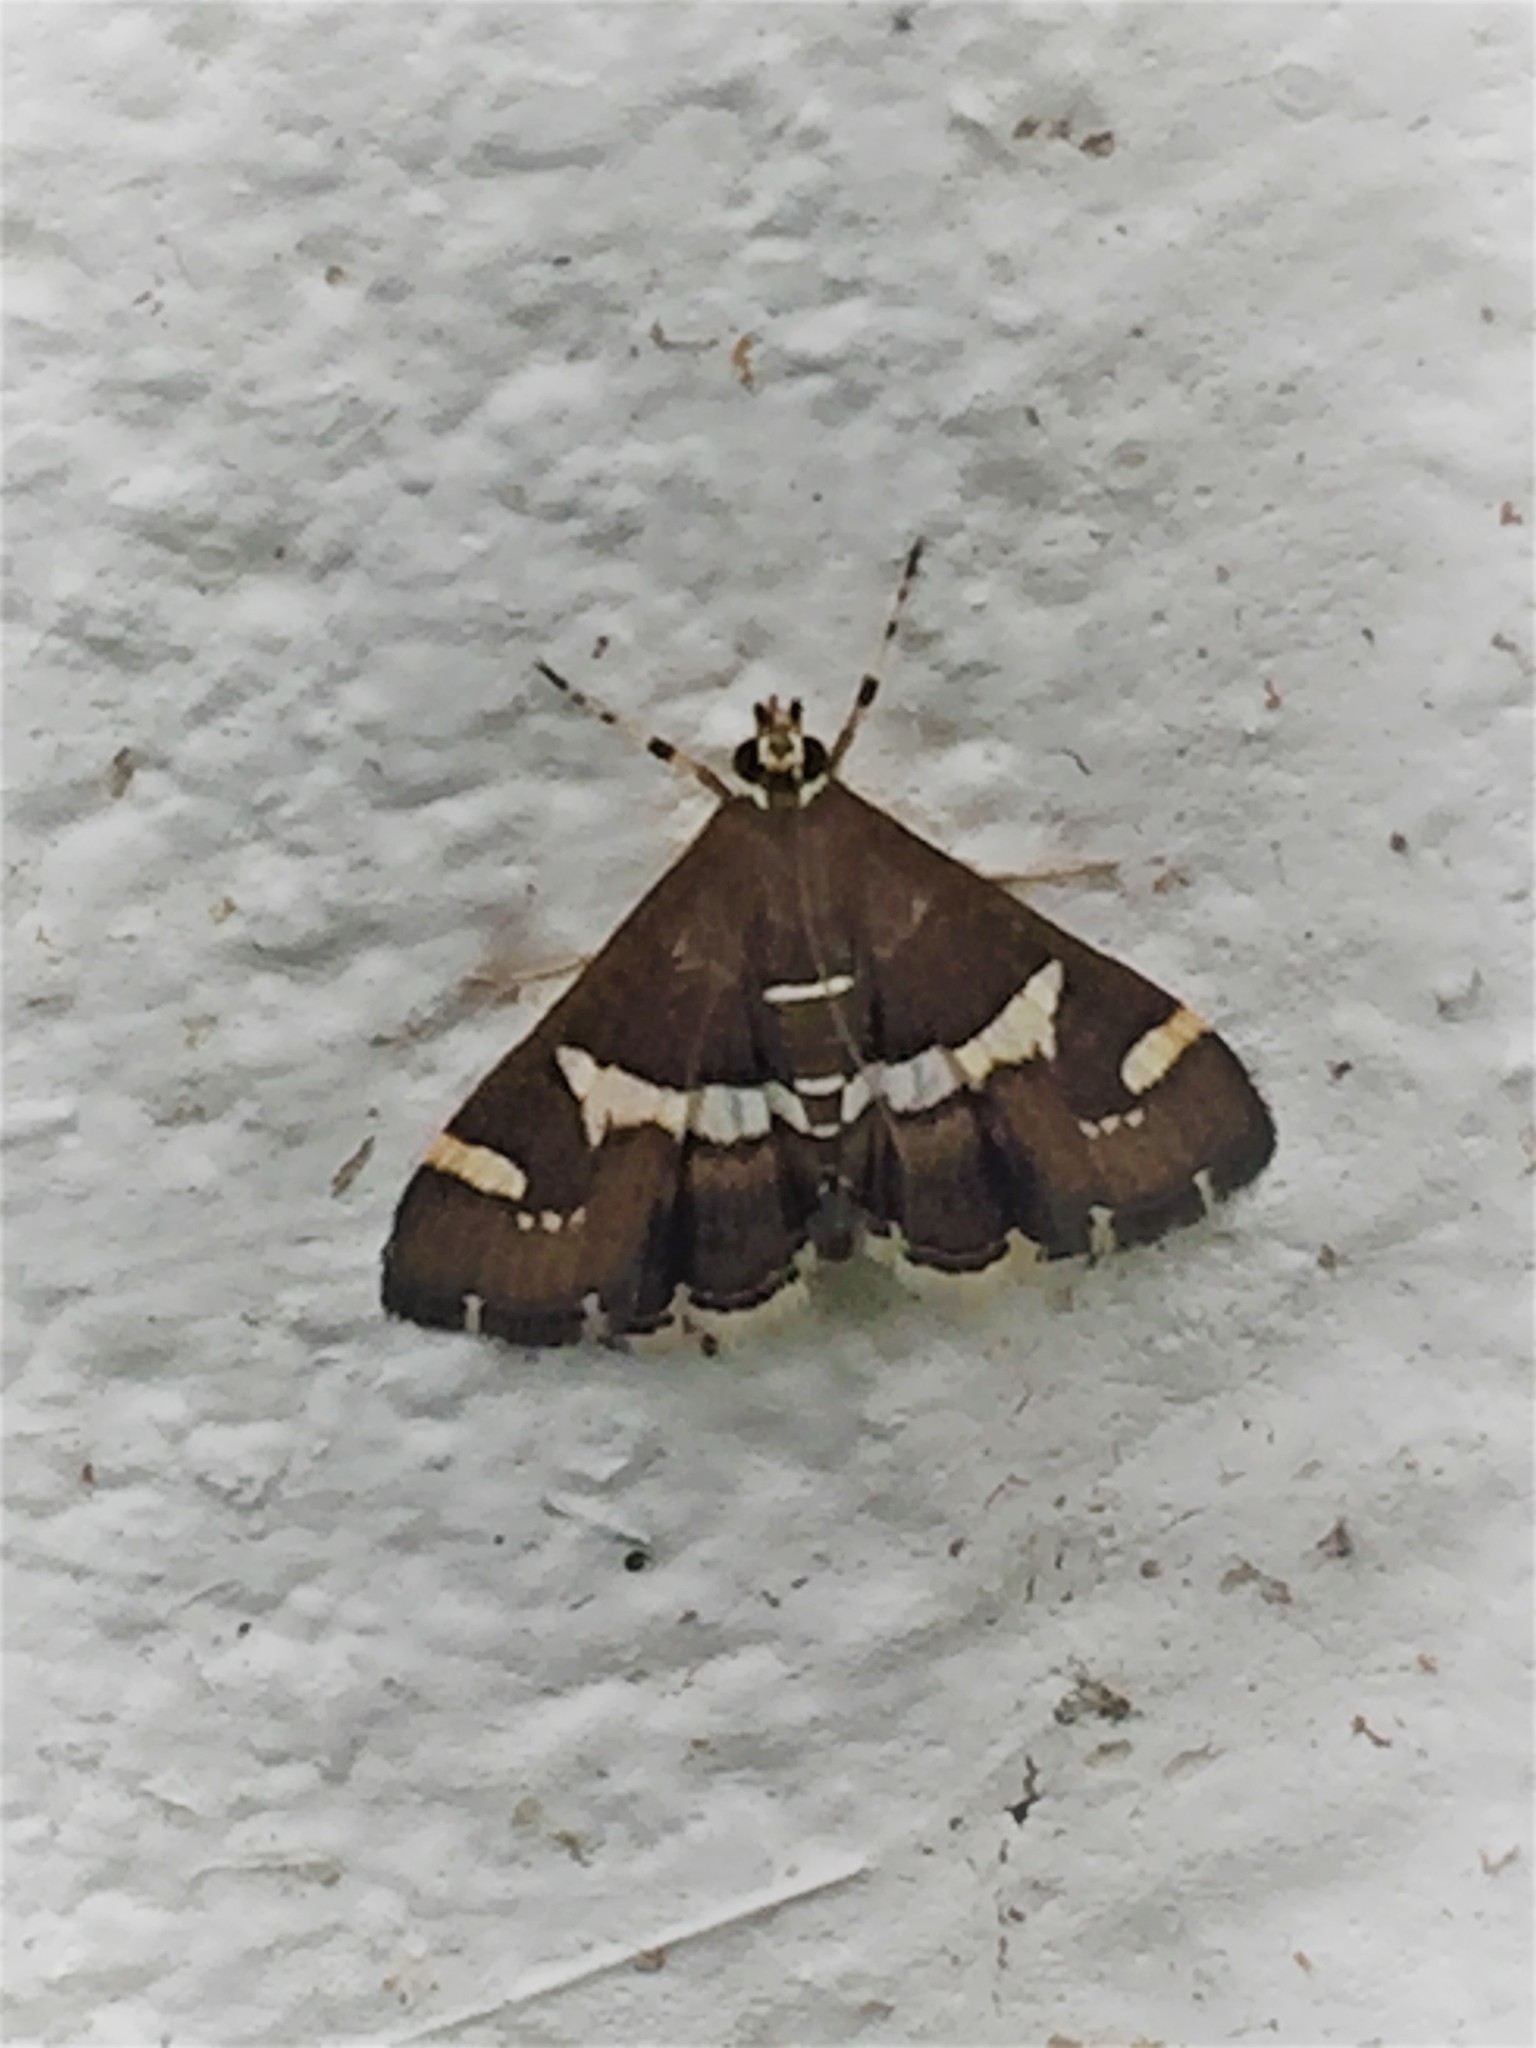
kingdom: Animalia
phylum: Arthropoda
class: Insecta
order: Lepidoptera
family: Crambidae
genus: Spoladea
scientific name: Spoladea recurvalis
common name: Beet webworm moth
